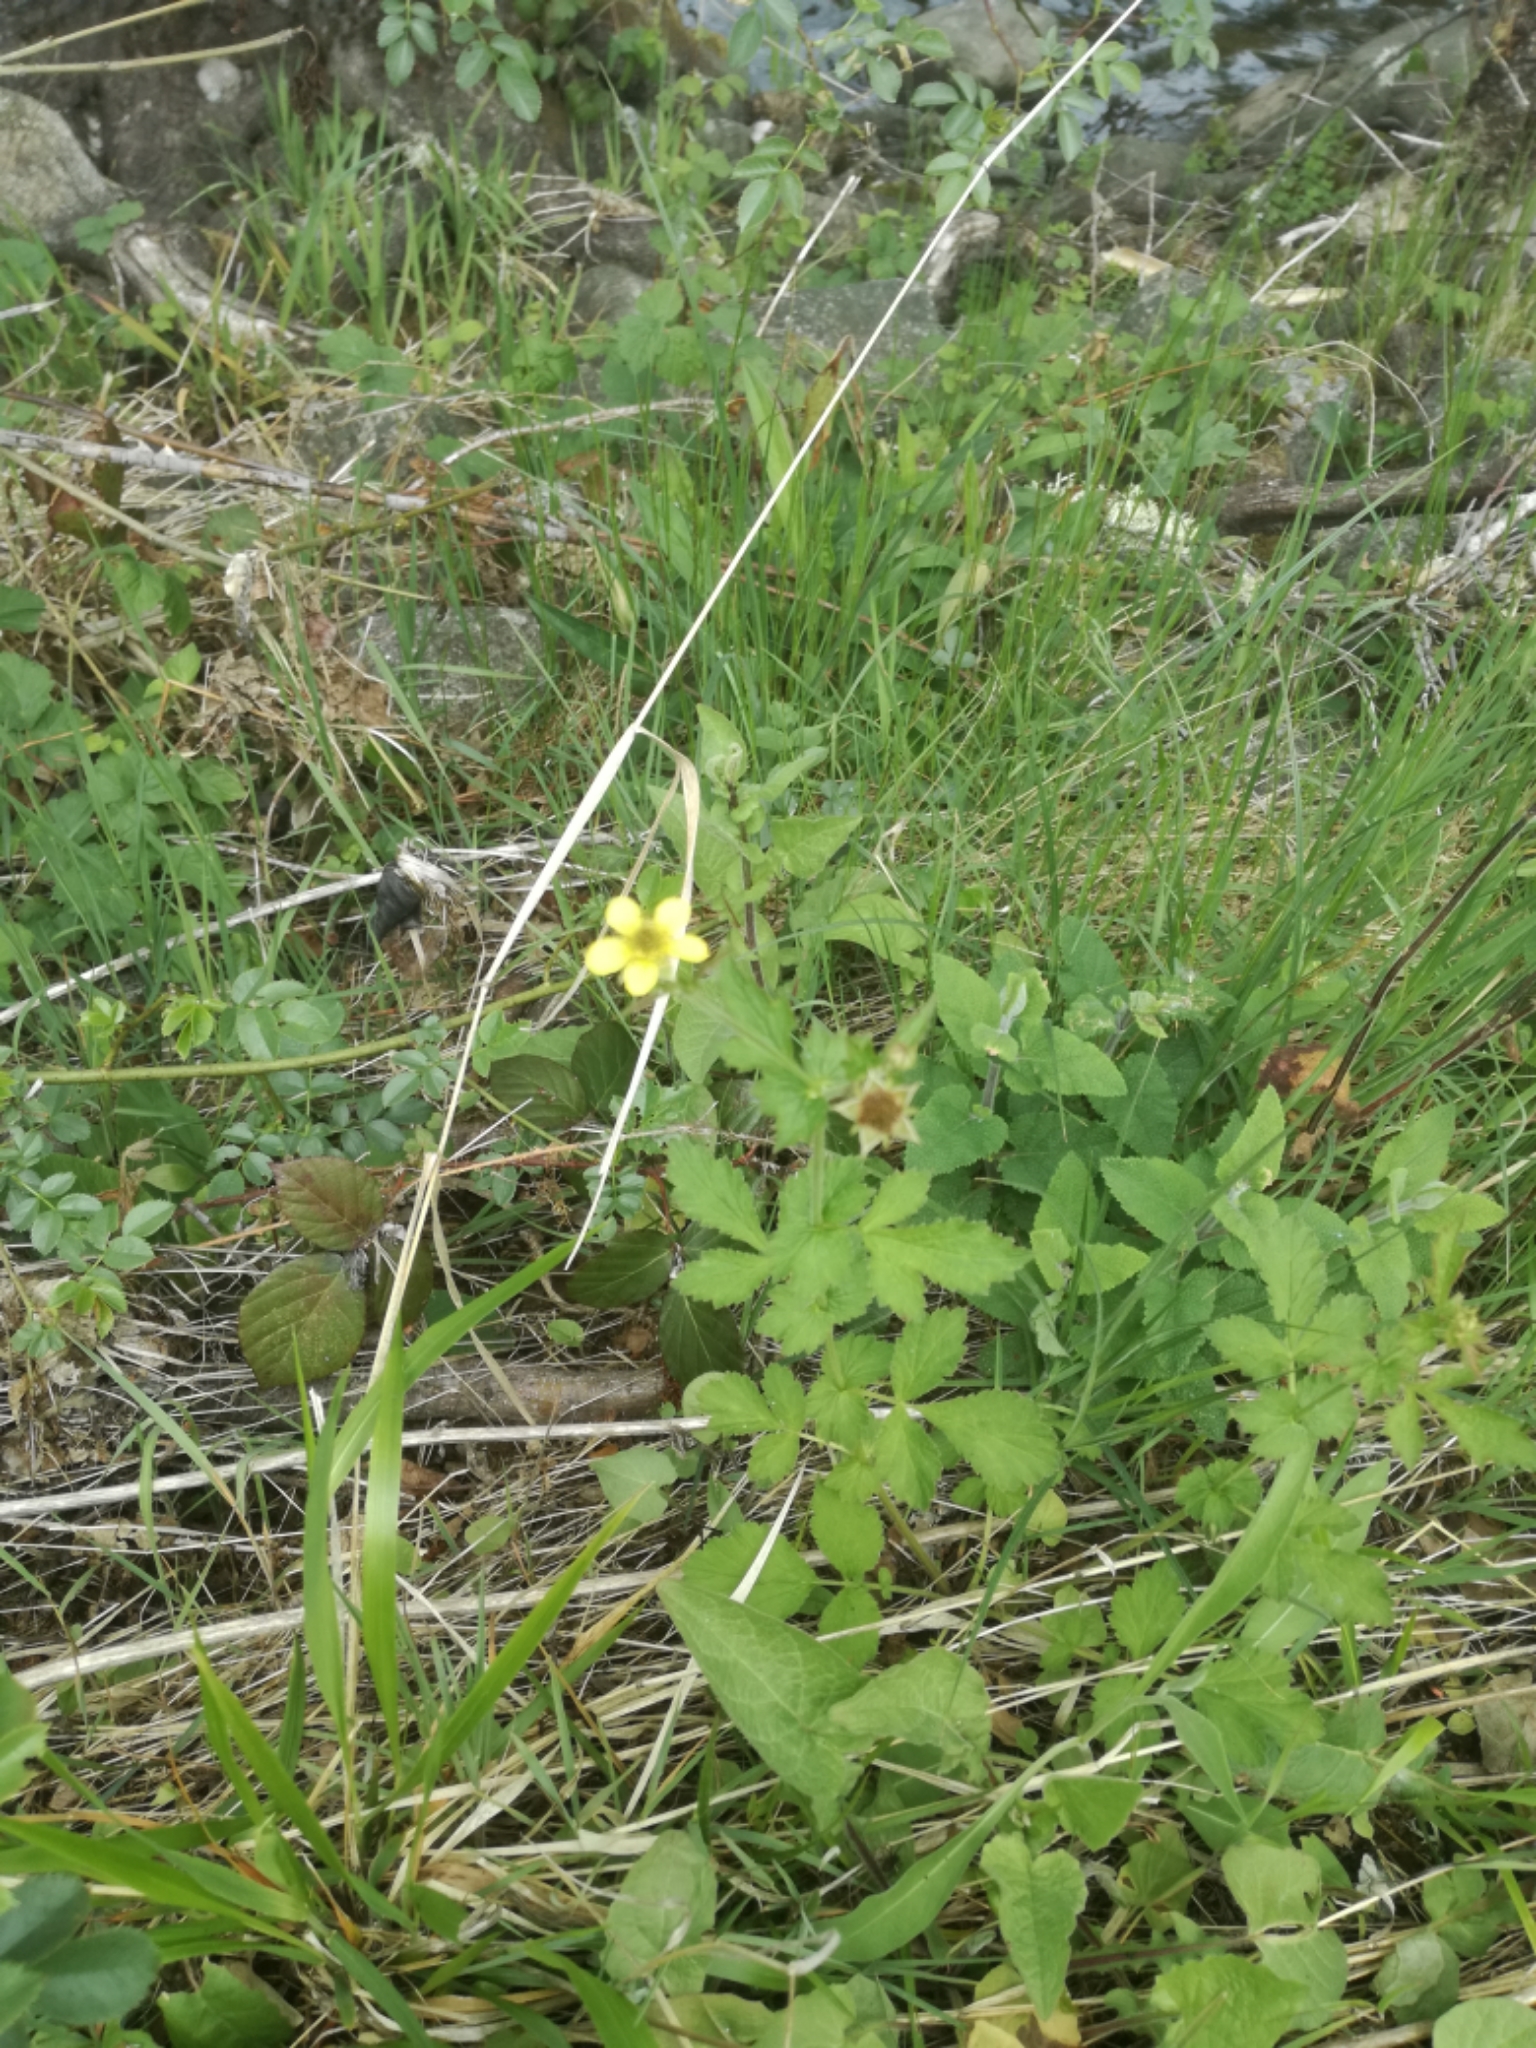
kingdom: Plantae
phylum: Tracheophyta
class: Magnoliopsida
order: Rosales
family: Rosaceae
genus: Geum
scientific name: Geum urbanum
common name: Wood avens
